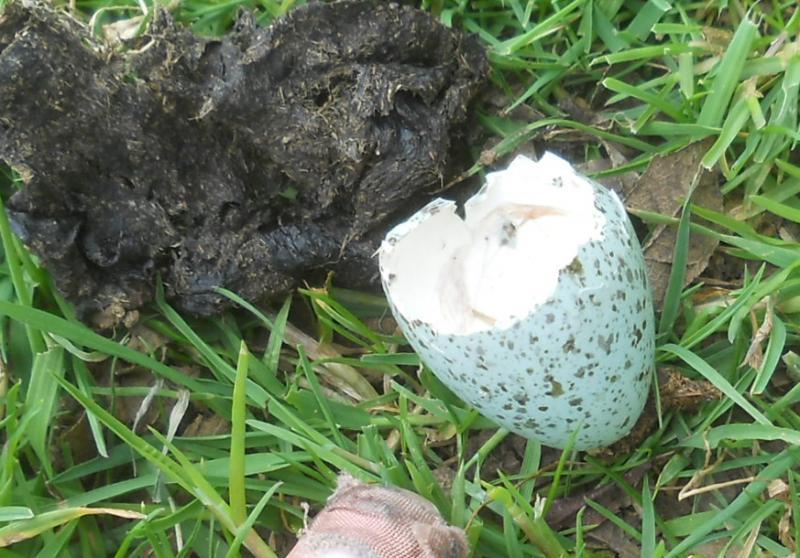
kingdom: Animalia
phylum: Chordata
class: Aves
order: Passeriformes
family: Turdidae
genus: Turdus
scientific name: Turdus merula
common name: Common blackbird
